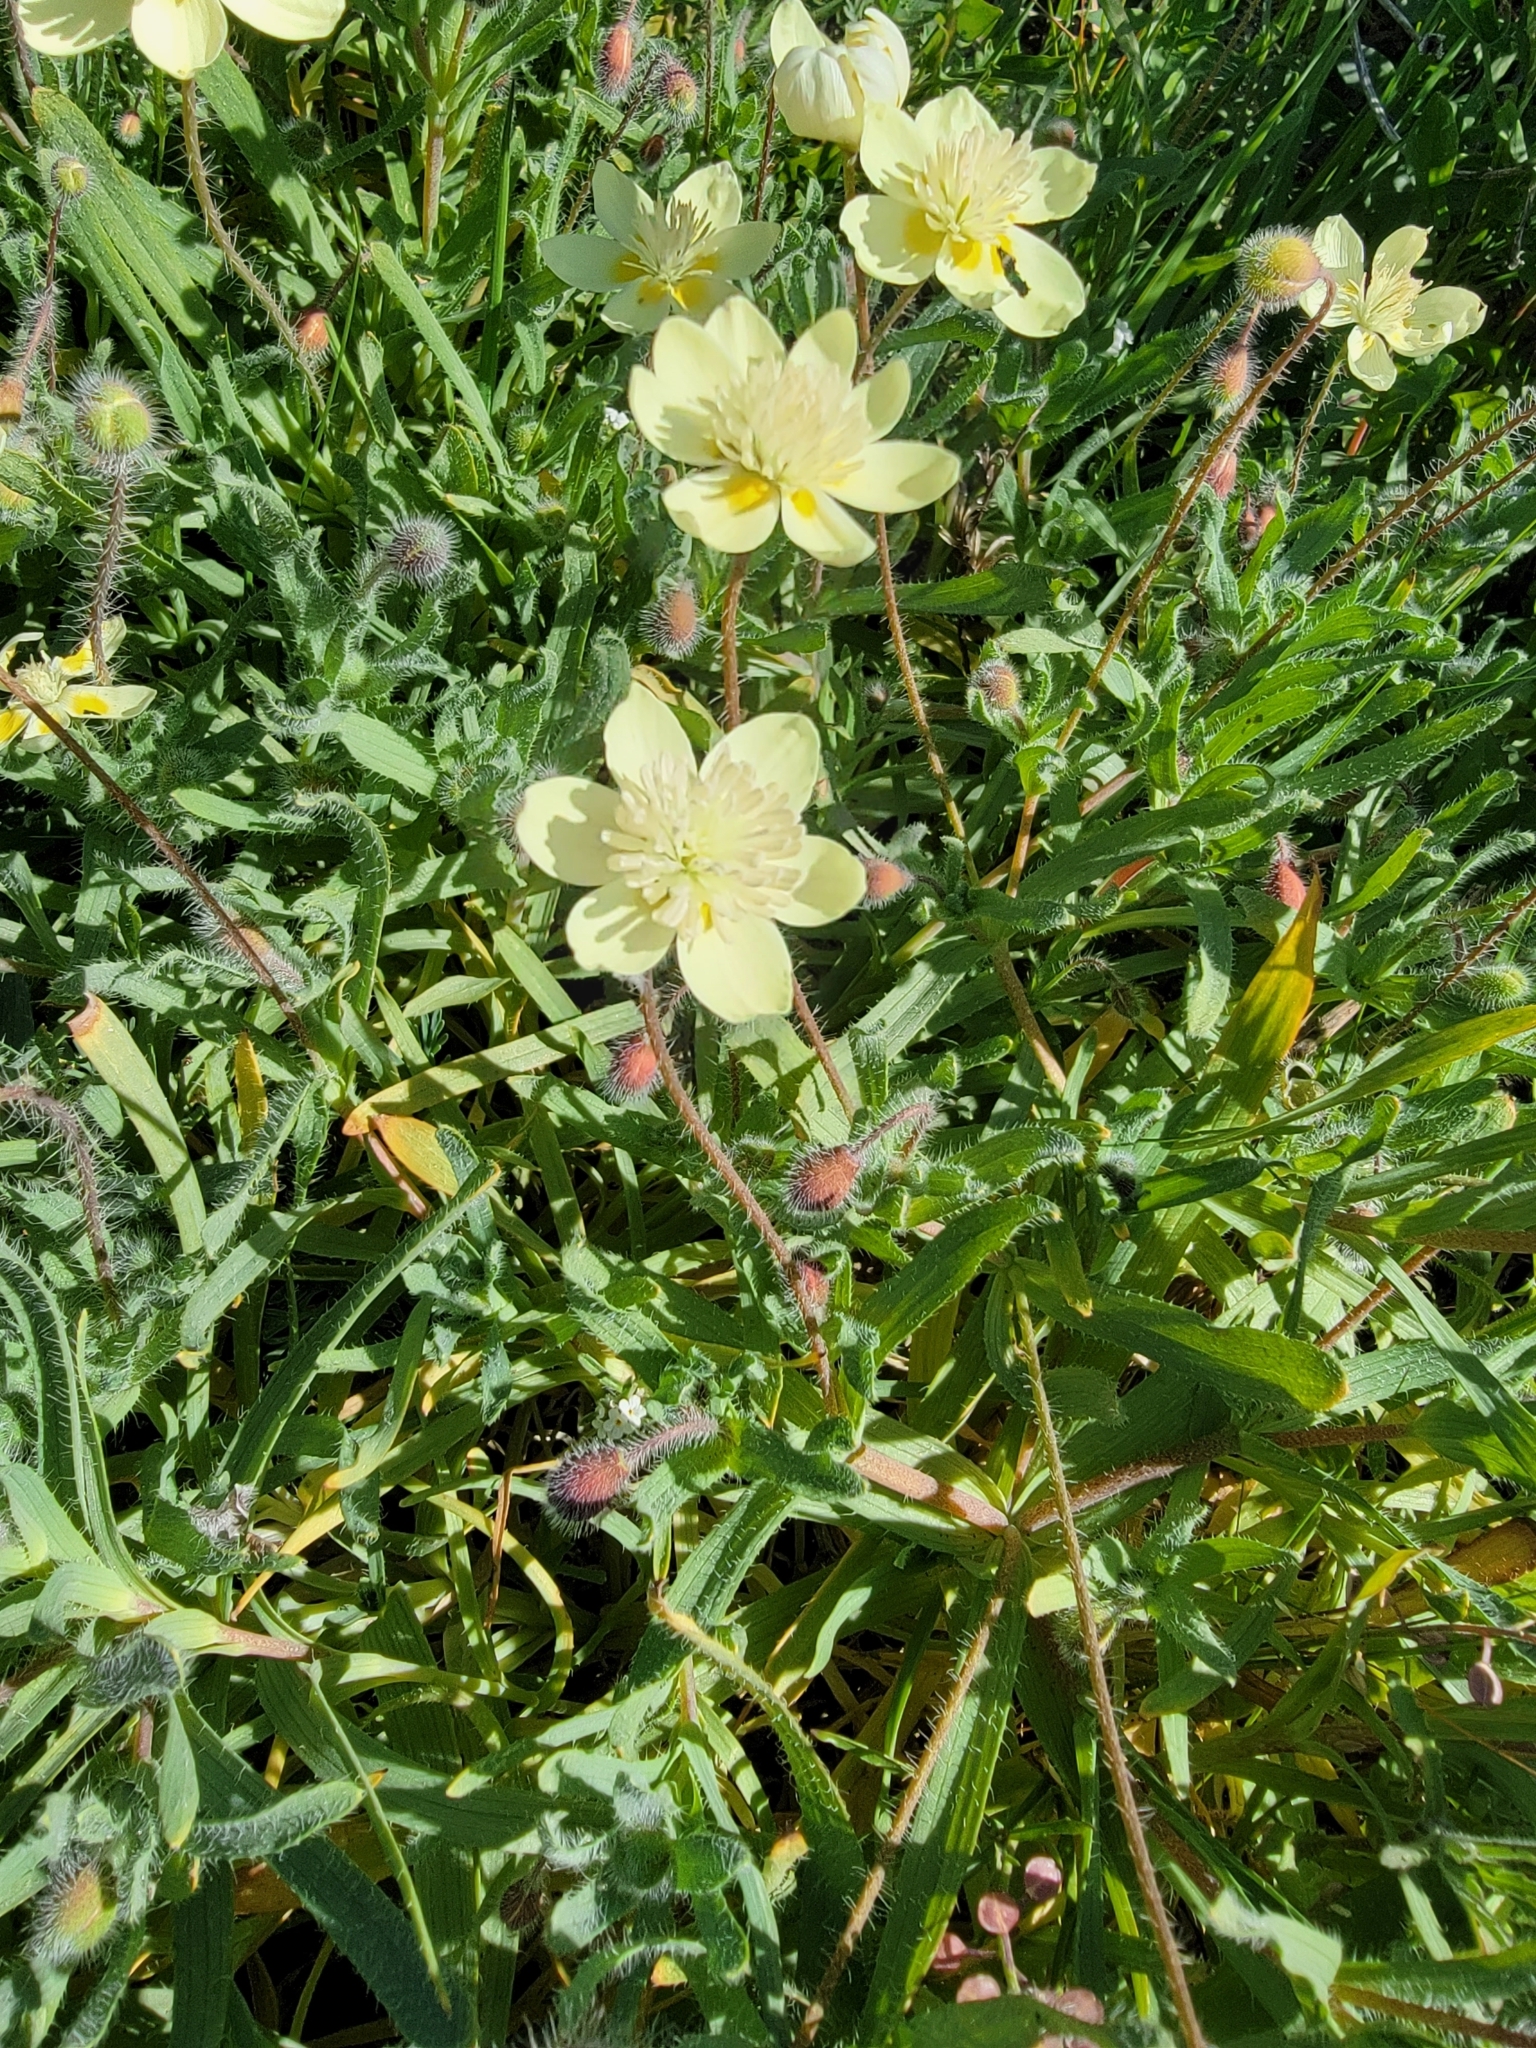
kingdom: Plantae
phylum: Tracheophyta
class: Magnoliopsida
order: Ranunculales
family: Papaveraceae
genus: Platystemon
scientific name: Platystemon californicus
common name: Cream-cups
